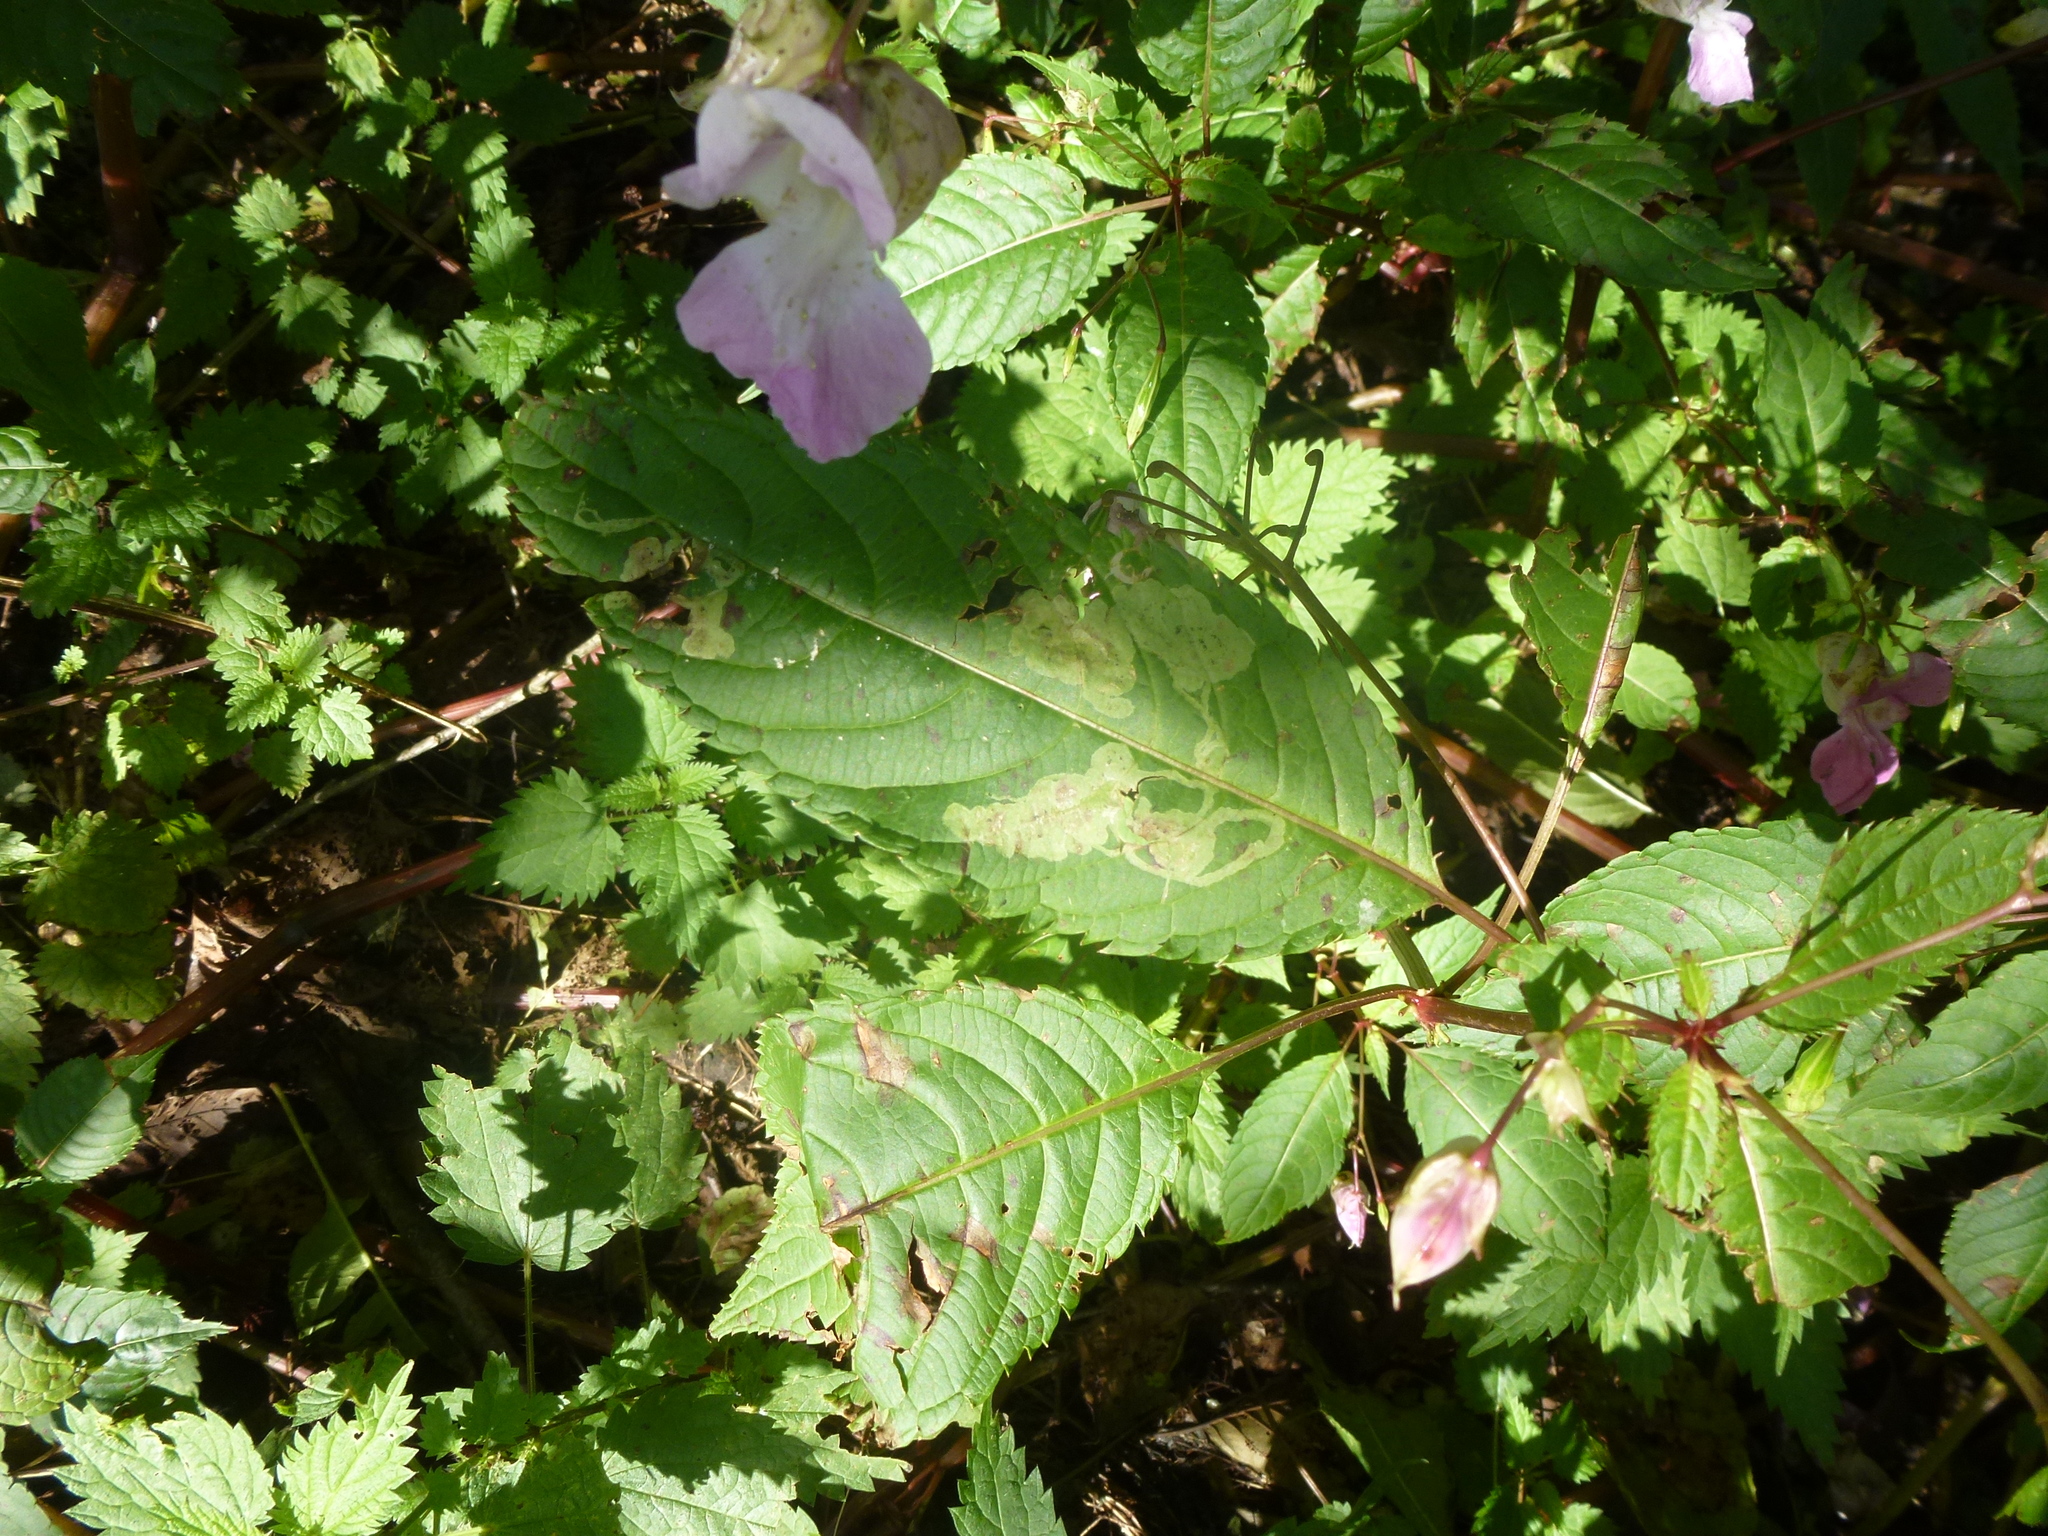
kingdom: Plantae
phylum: Tracheophyta
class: Magnoliopsida
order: Ericales
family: Balsaminaceae
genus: Impatiens
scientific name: Impatiens glandulifera
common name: Himalayan balsam
